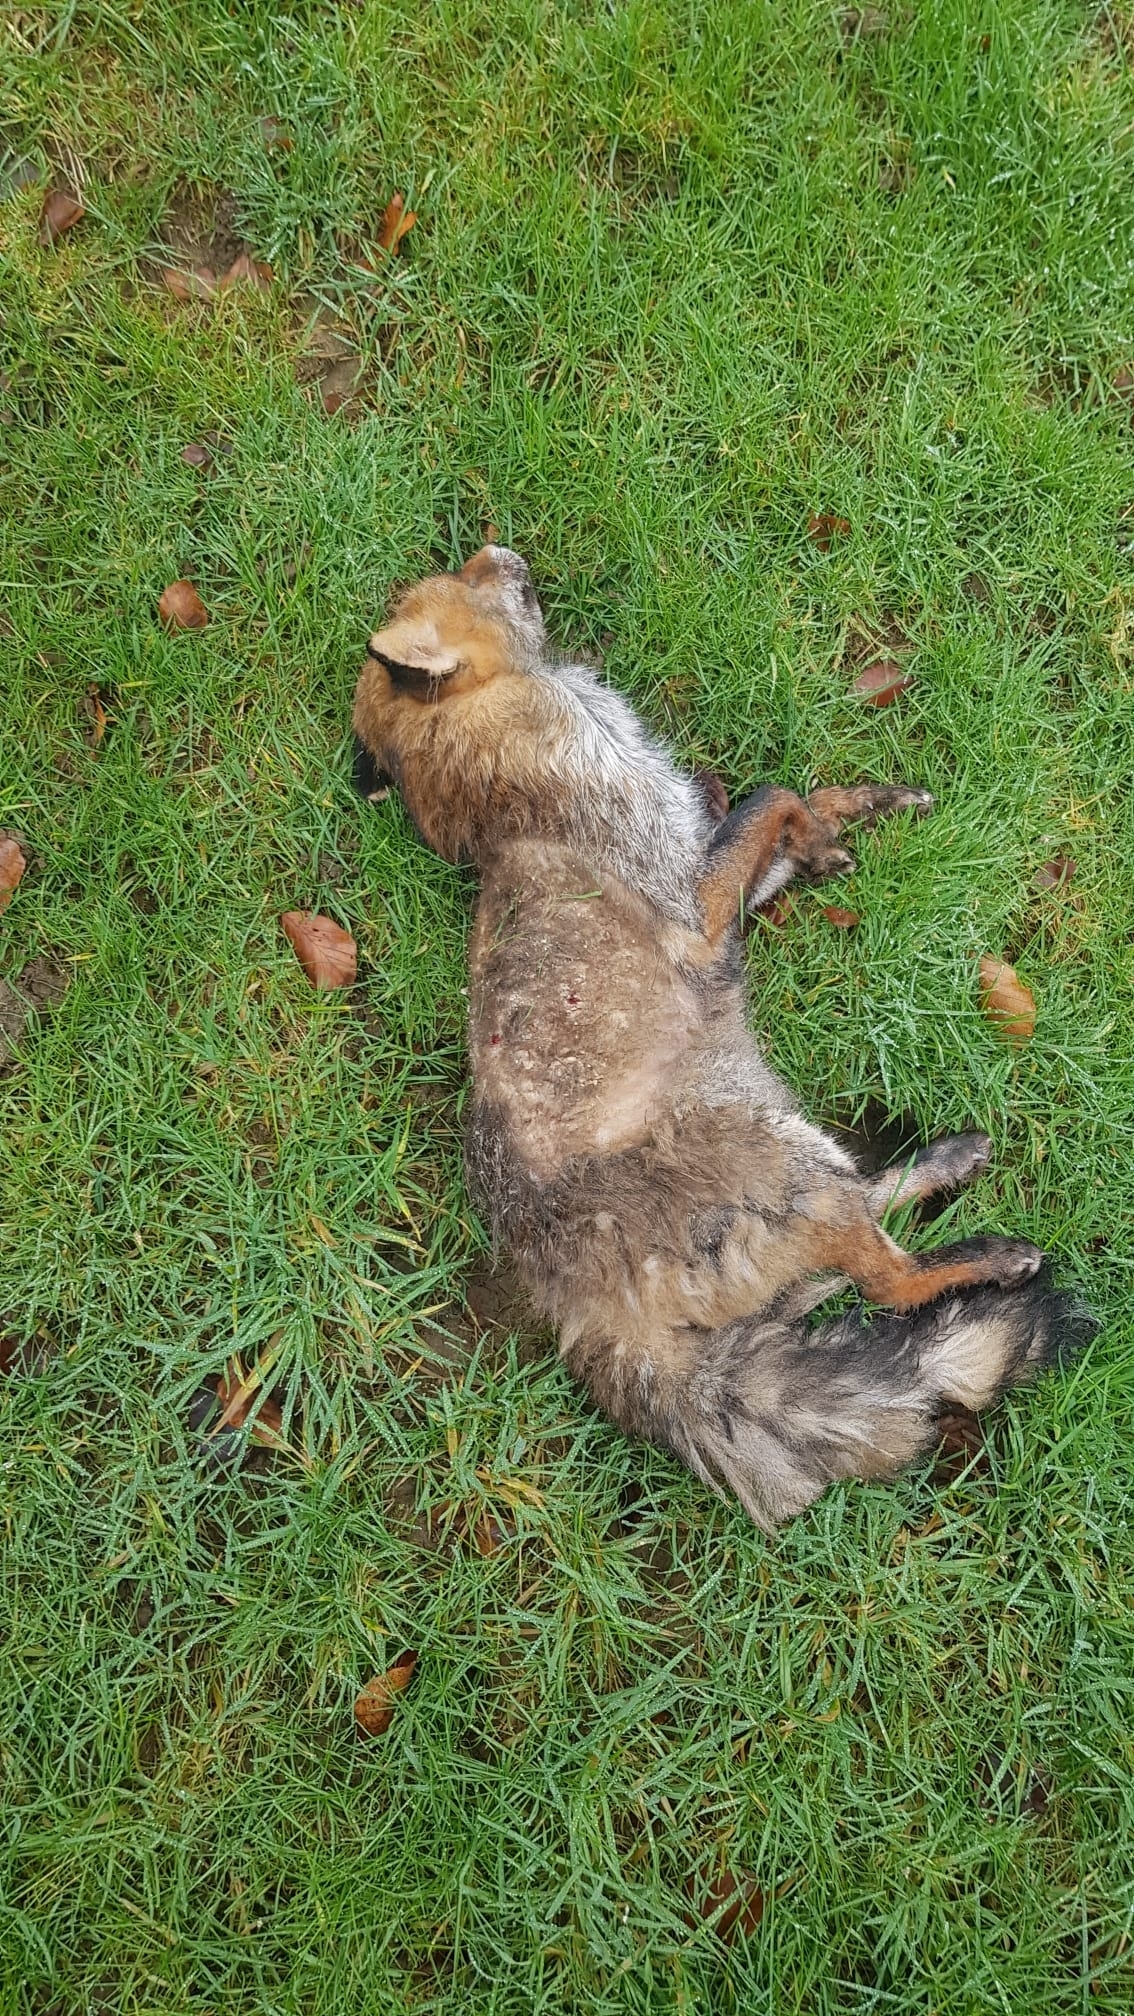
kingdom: Animalia
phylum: Chordata
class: Mammalia
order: Carnivora
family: Canidae
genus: Vulpes
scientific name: Vulpes vulpes
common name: Red fox
